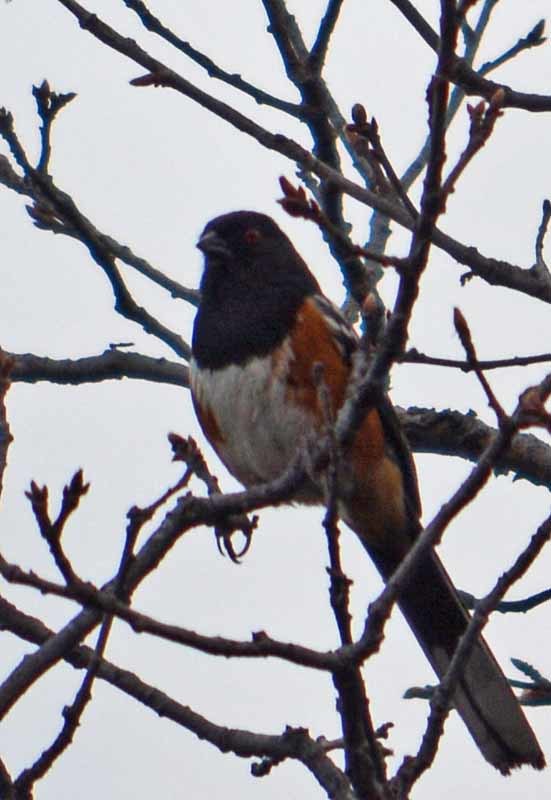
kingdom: Animalia
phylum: Chordata
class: Aves
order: Passeriformes
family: Passerellidae
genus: Pipilo
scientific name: Pipilo maculatus
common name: Spotted towhee
